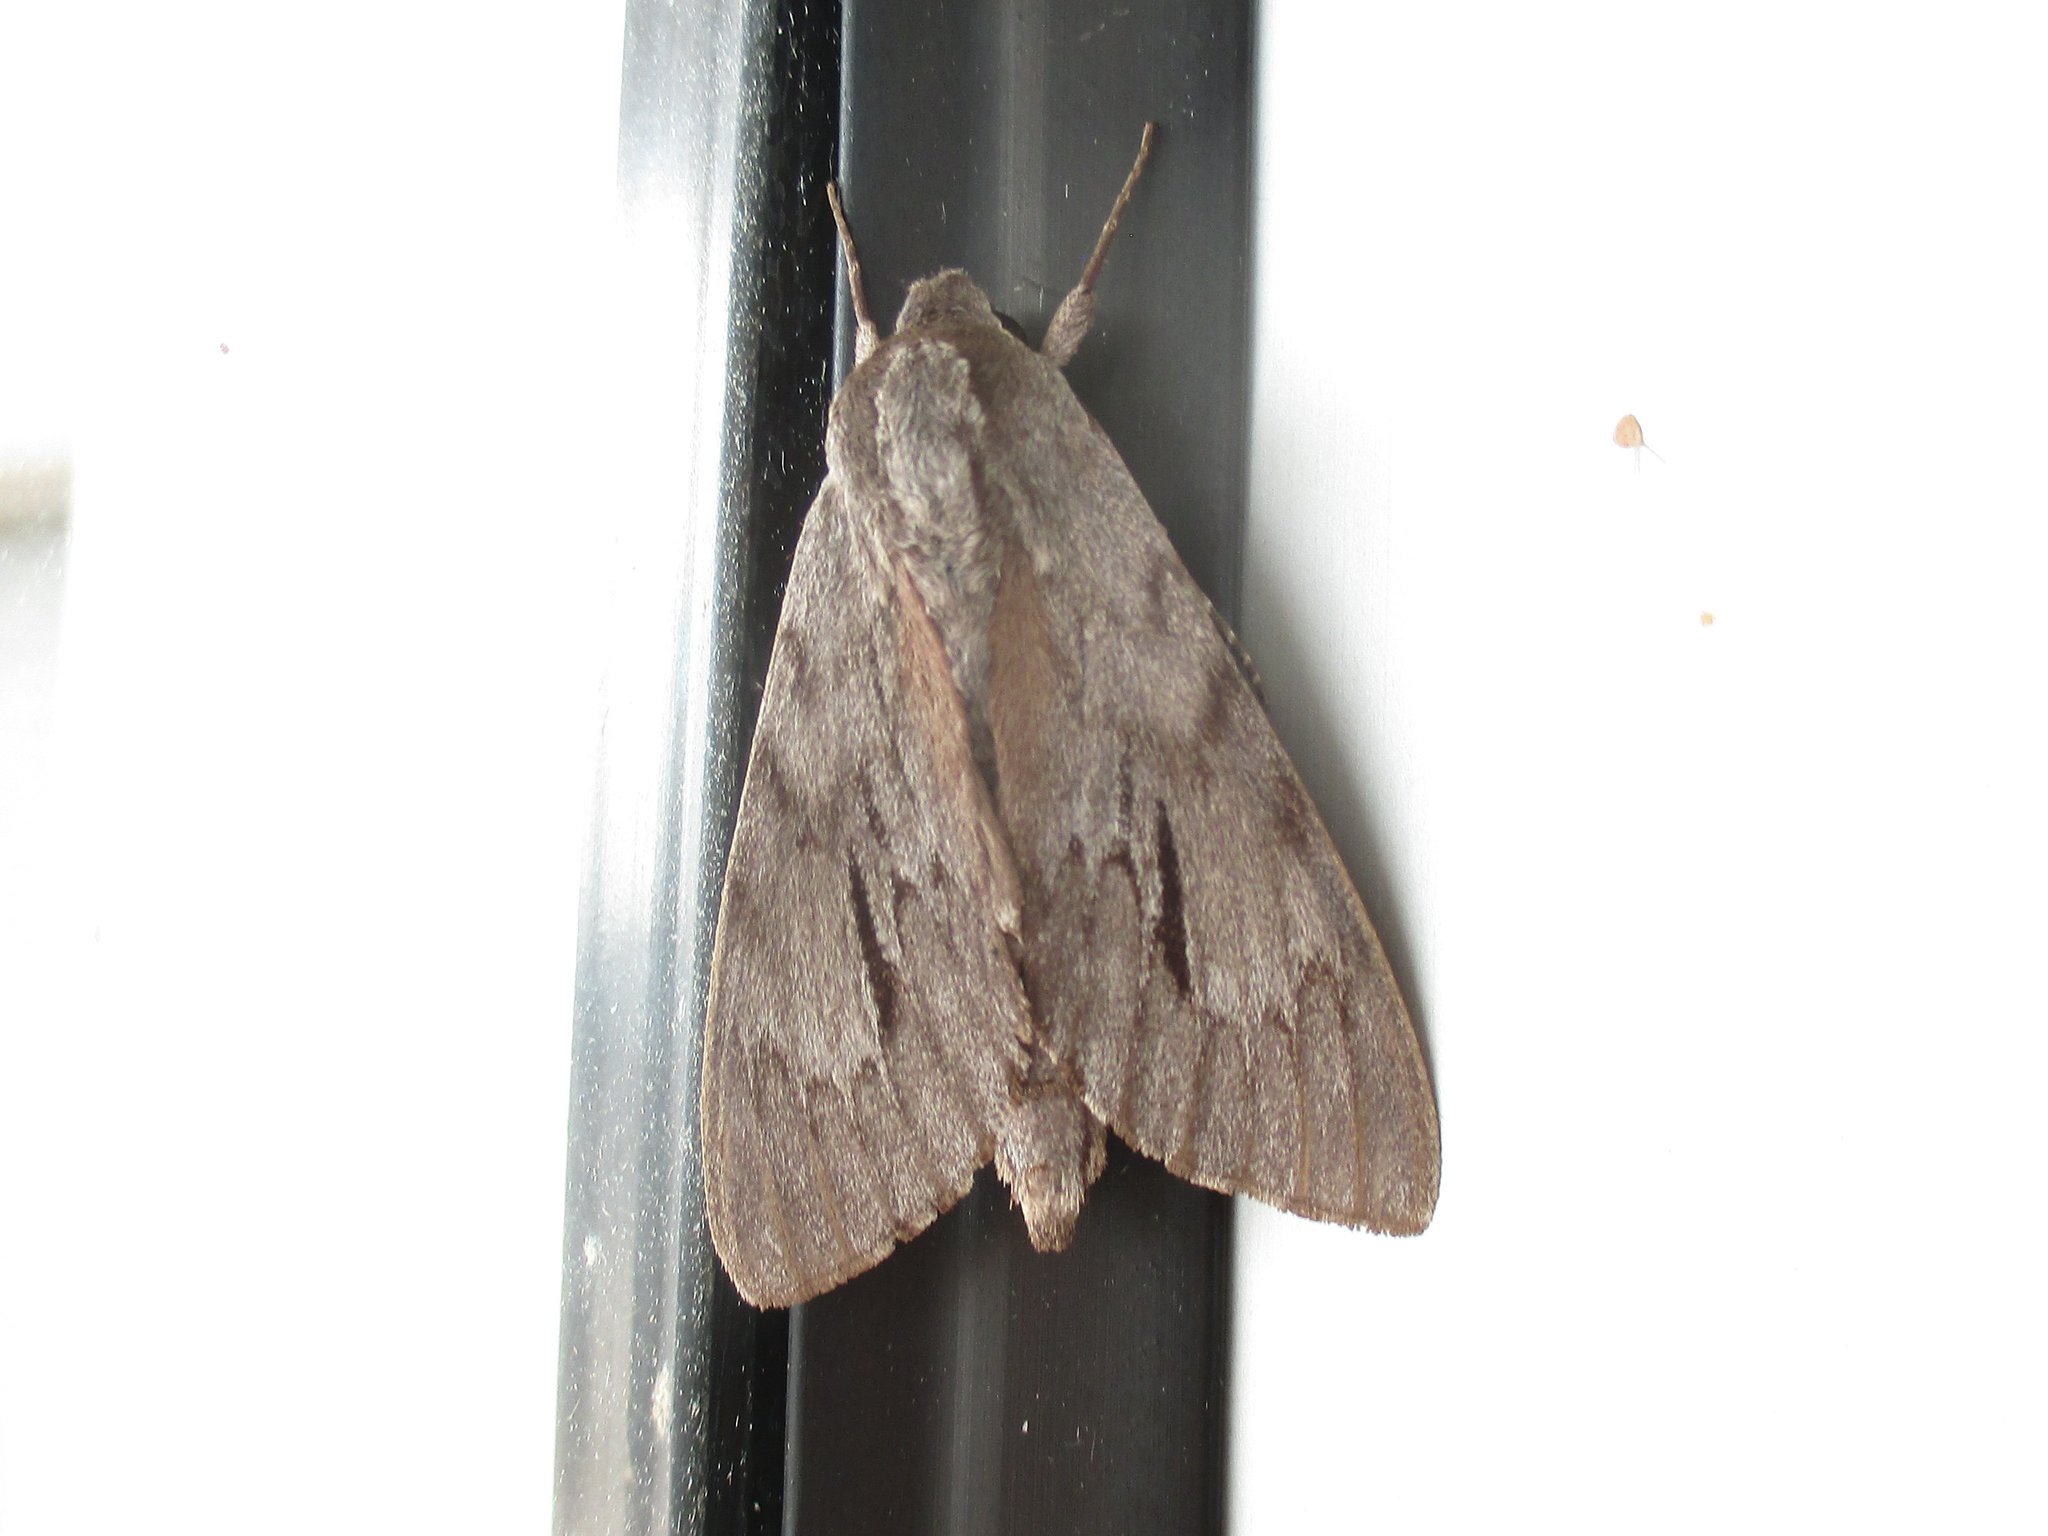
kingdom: Animalia
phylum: Arthropoda
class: Insecta
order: Lepidoptera
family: Sphingidae
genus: Lapara
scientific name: Lapara coniferarum
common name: Southern pine sphinx
